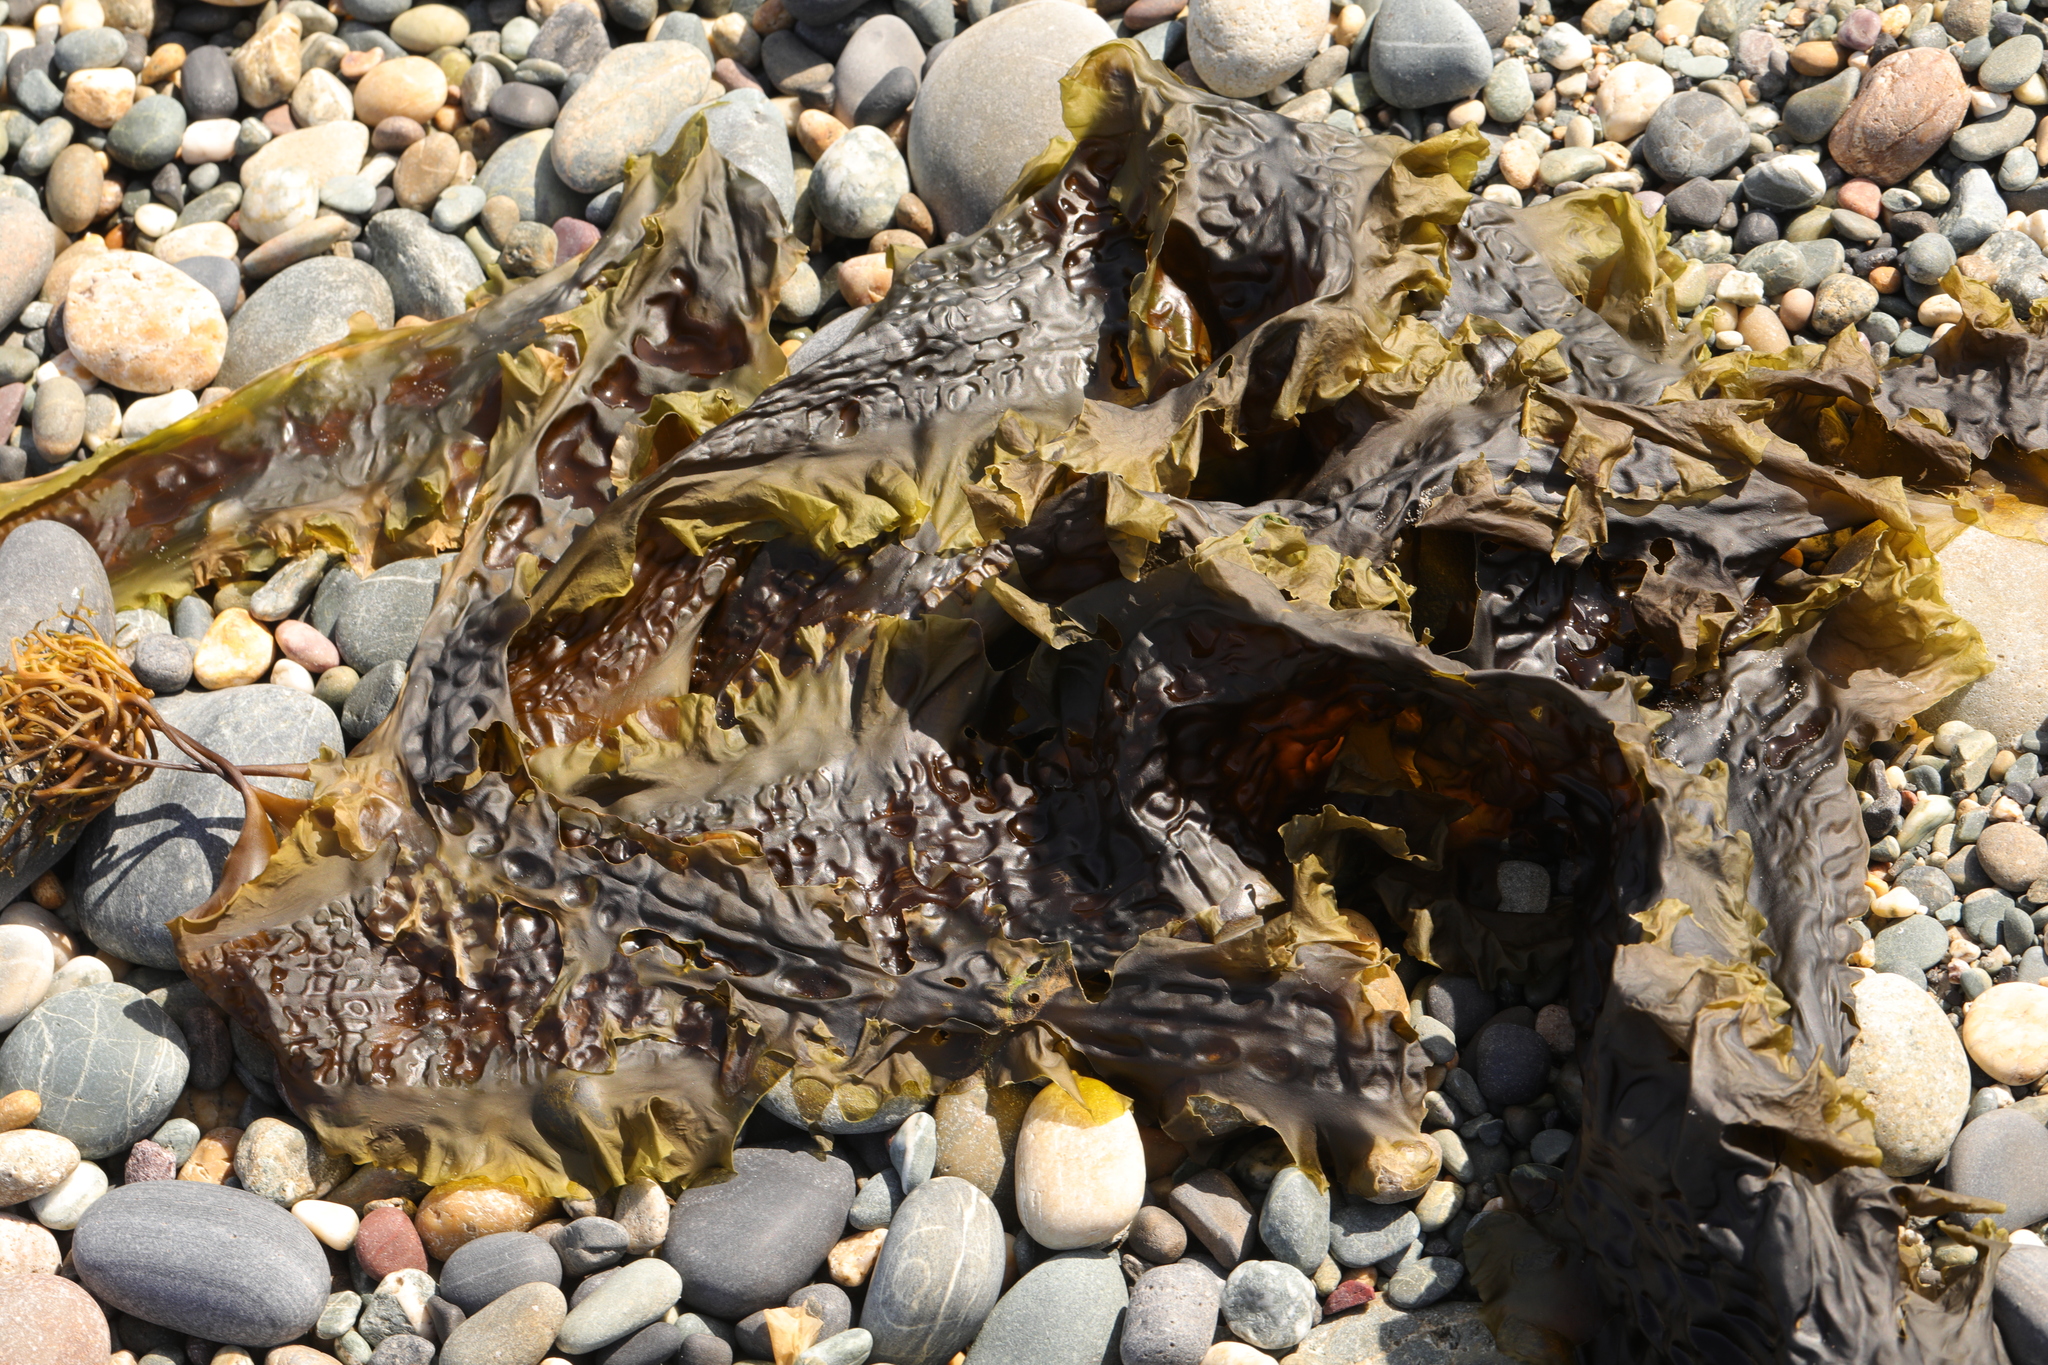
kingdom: Chromista
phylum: Ochrophyta
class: Phaeophyceae
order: Laminariales
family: Laminariaceae
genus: Saccharina
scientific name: Saccharina latissima
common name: Poor man's weather glass
